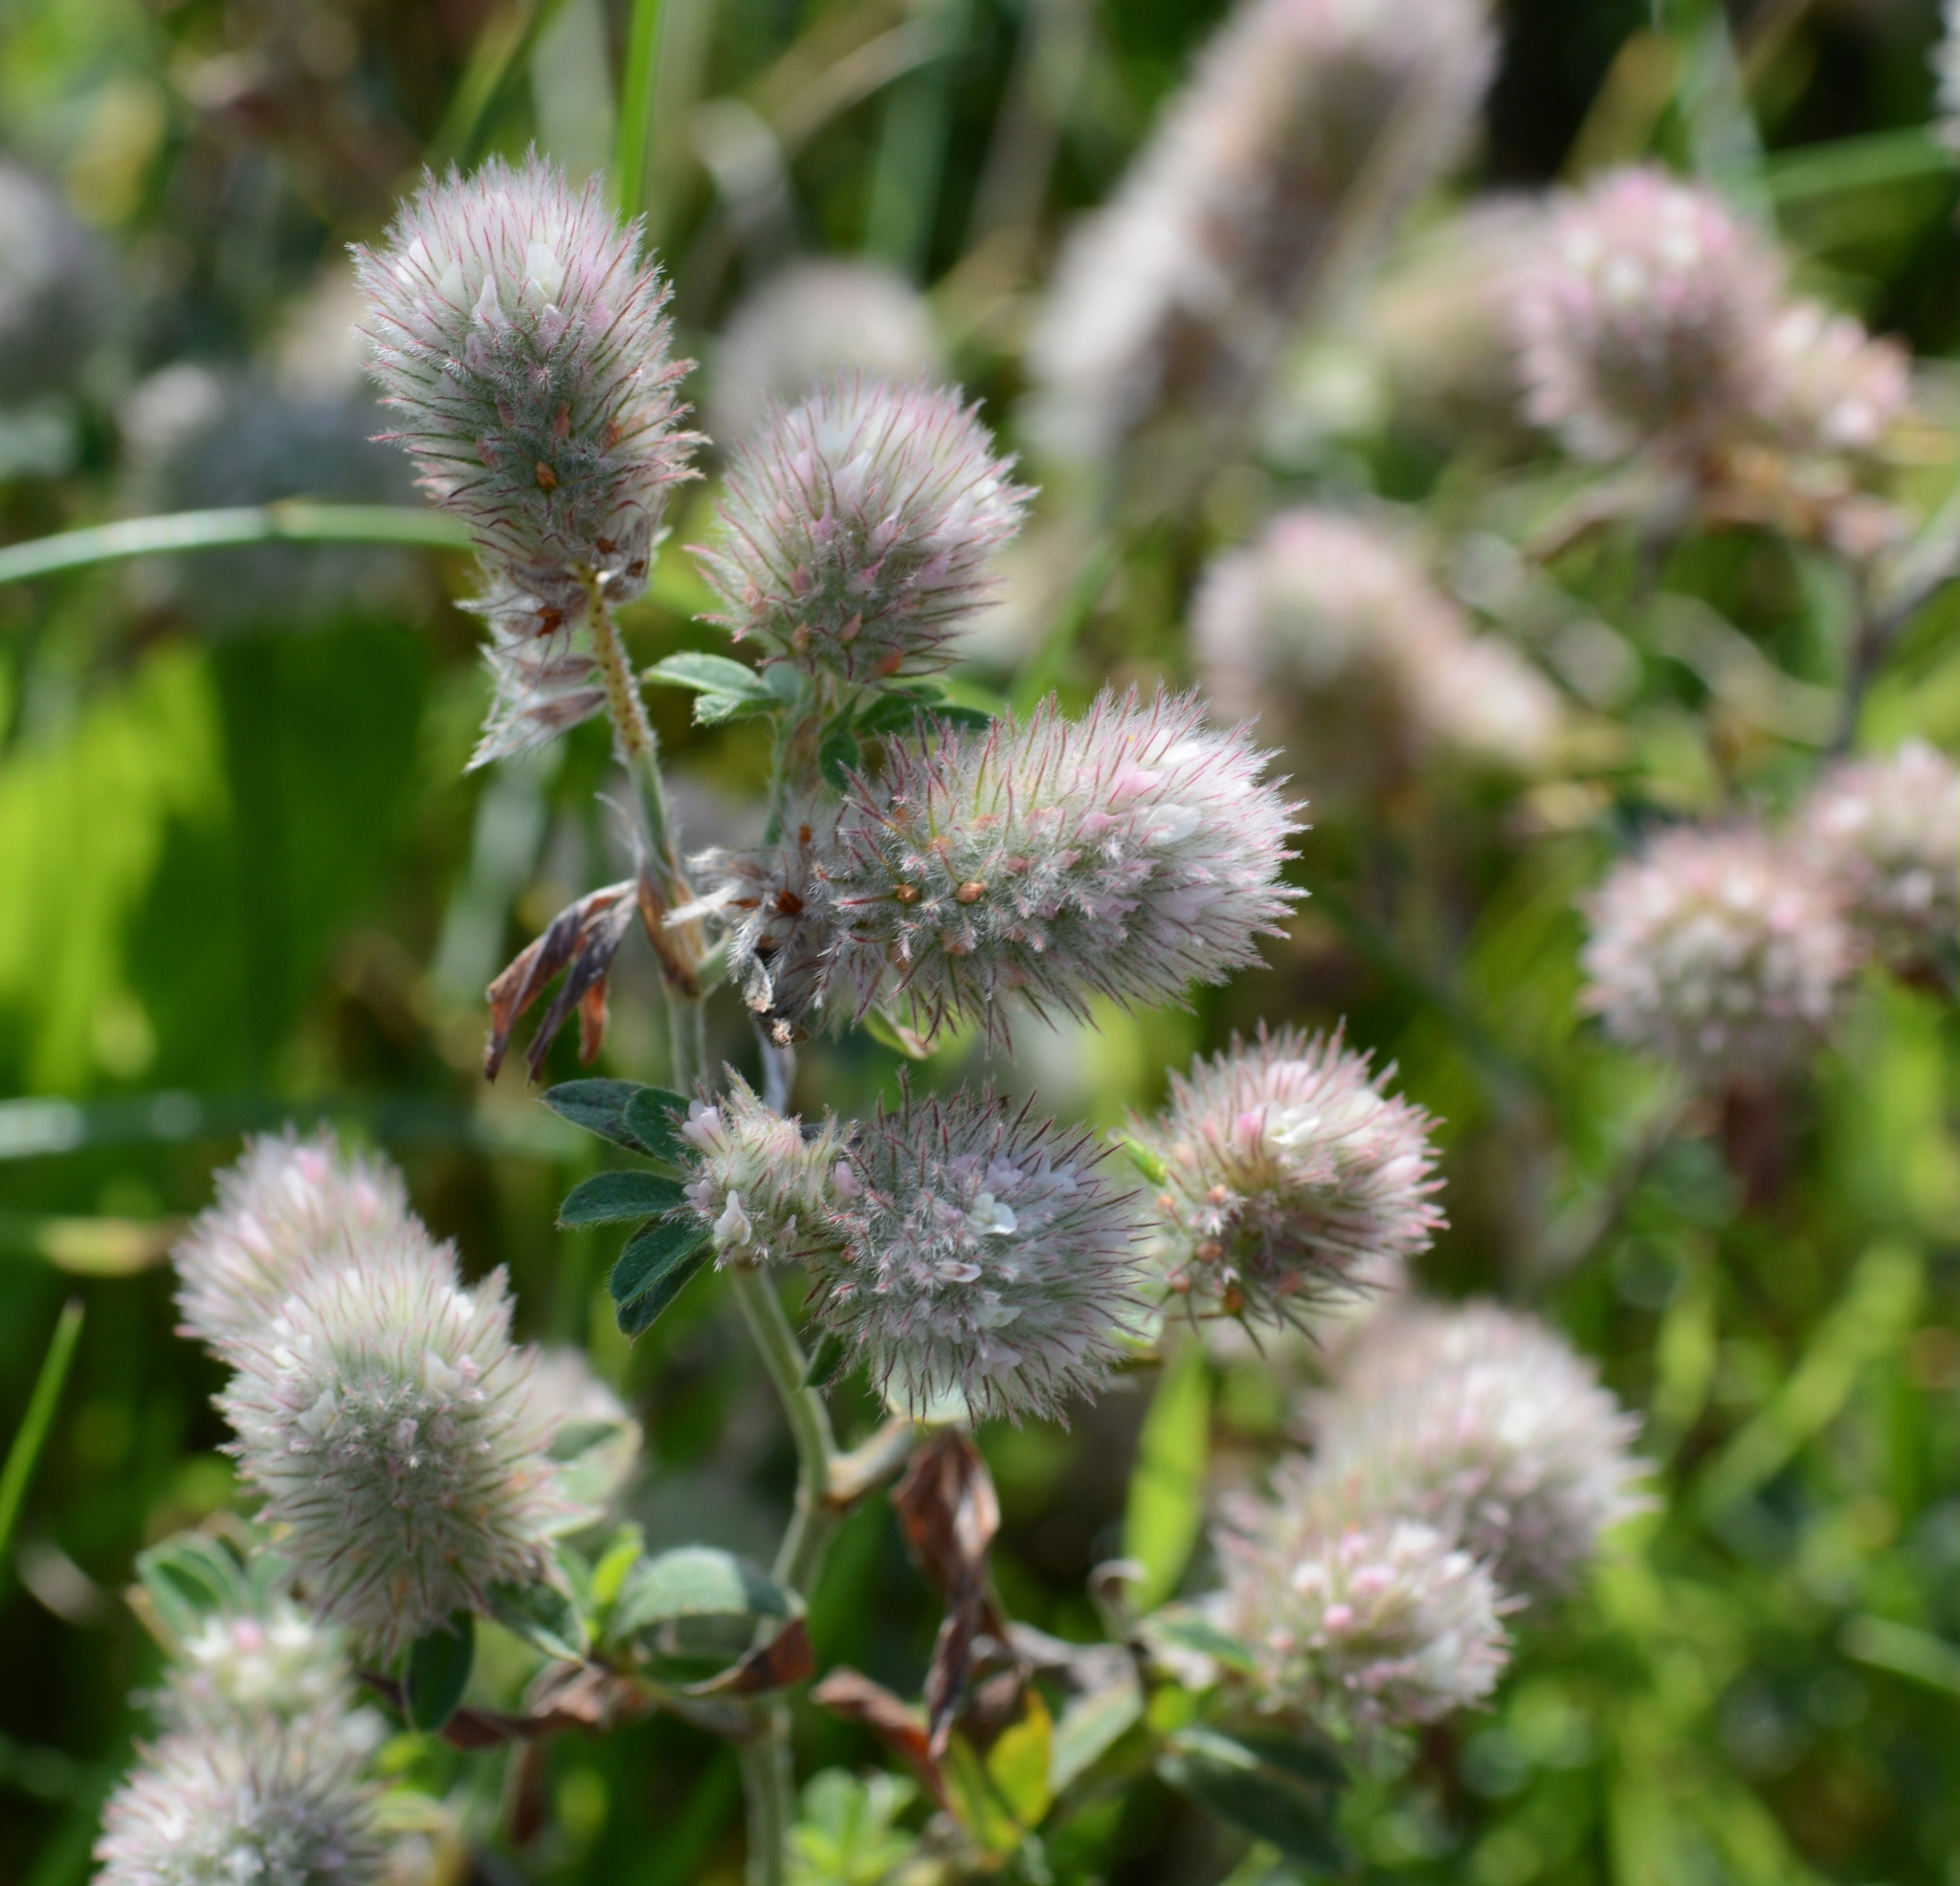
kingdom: Plantae
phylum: Tracheophyta
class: Magnoliopsida
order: Fabales
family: Fabaceae
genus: Trifolium
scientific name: Trifolium arvense
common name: Hare's-foot clover
